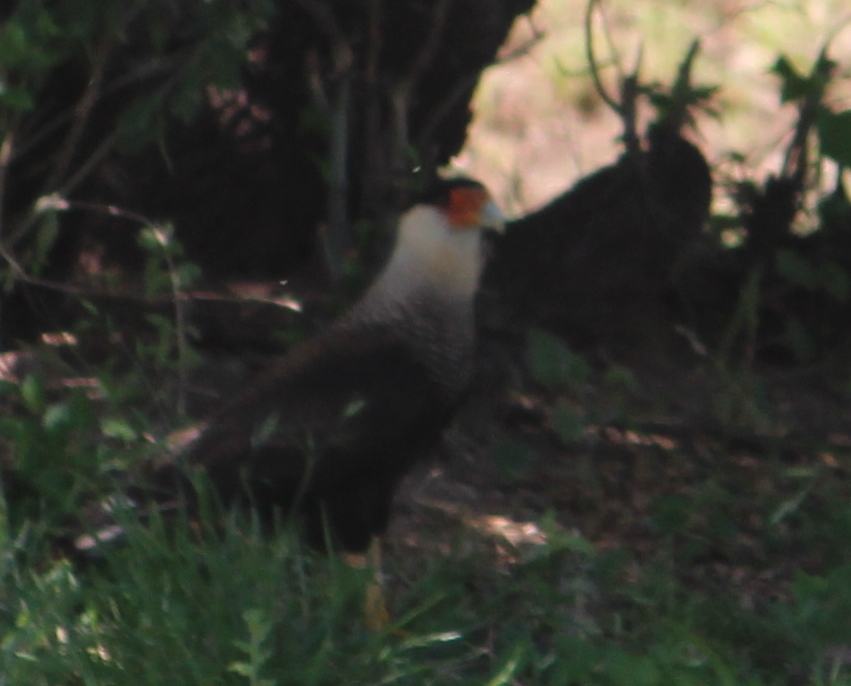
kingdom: Animalia
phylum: Chordata
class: Aves
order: Falconiformes
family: Falconidae
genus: Caracara
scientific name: Caracara plancus
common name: Southern caracara
